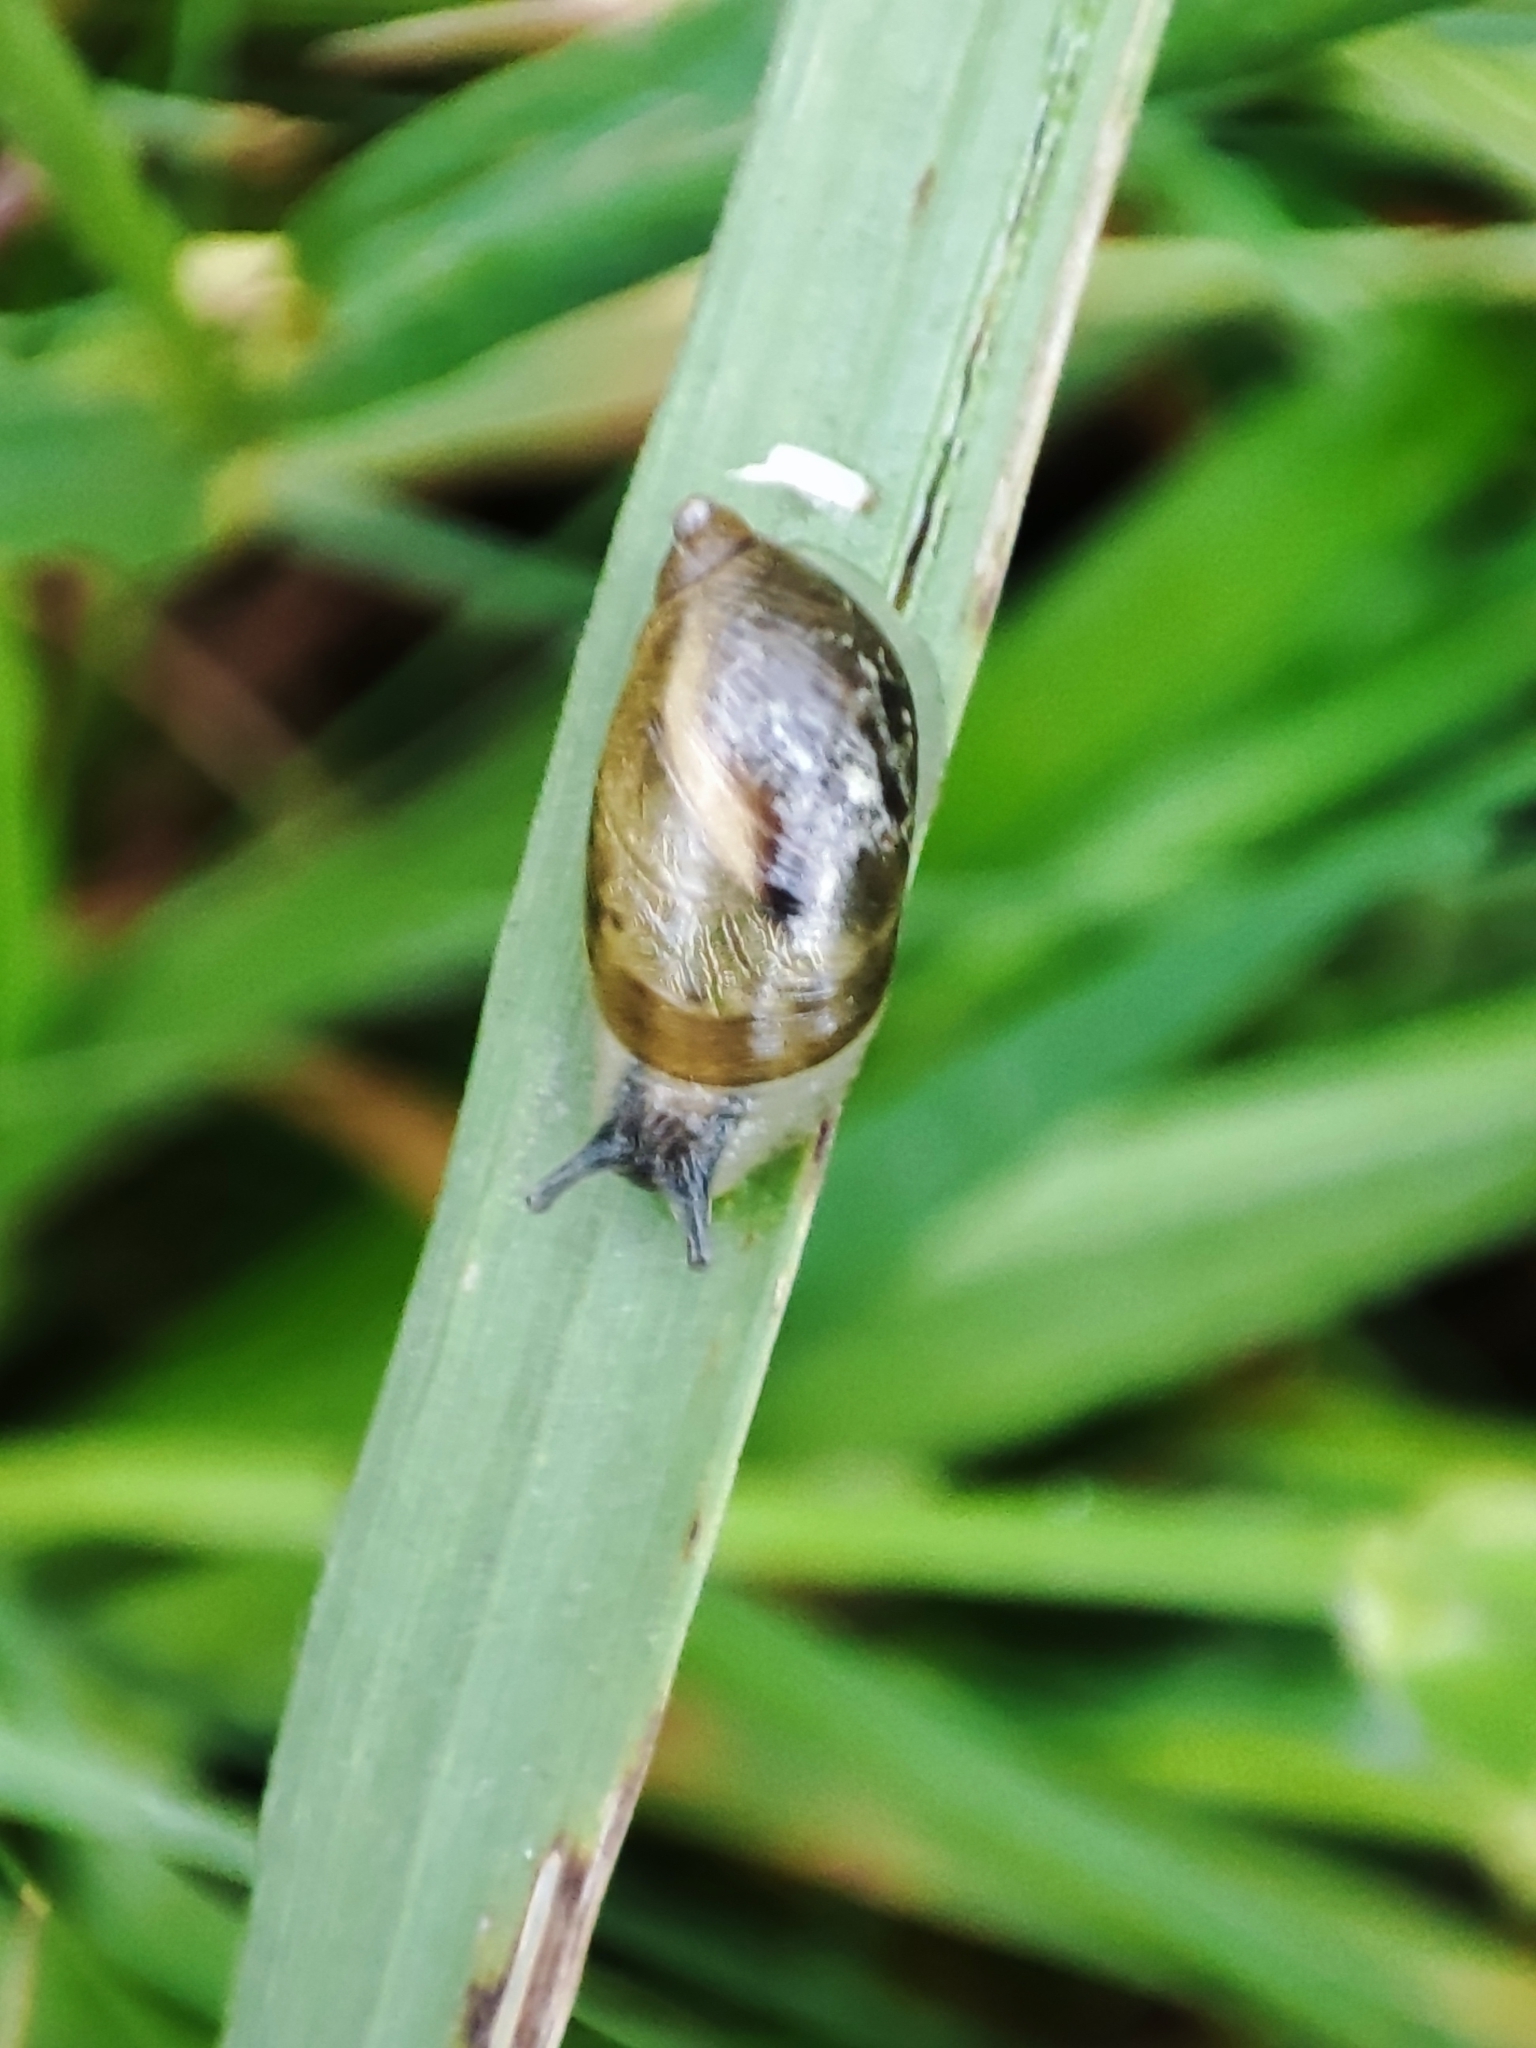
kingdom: Animalia
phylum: Mollusca
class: Gastropoda
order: Stylommatophora
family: Succineidae
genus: Succinea
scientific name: Succinea putris
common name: European ambersnail
